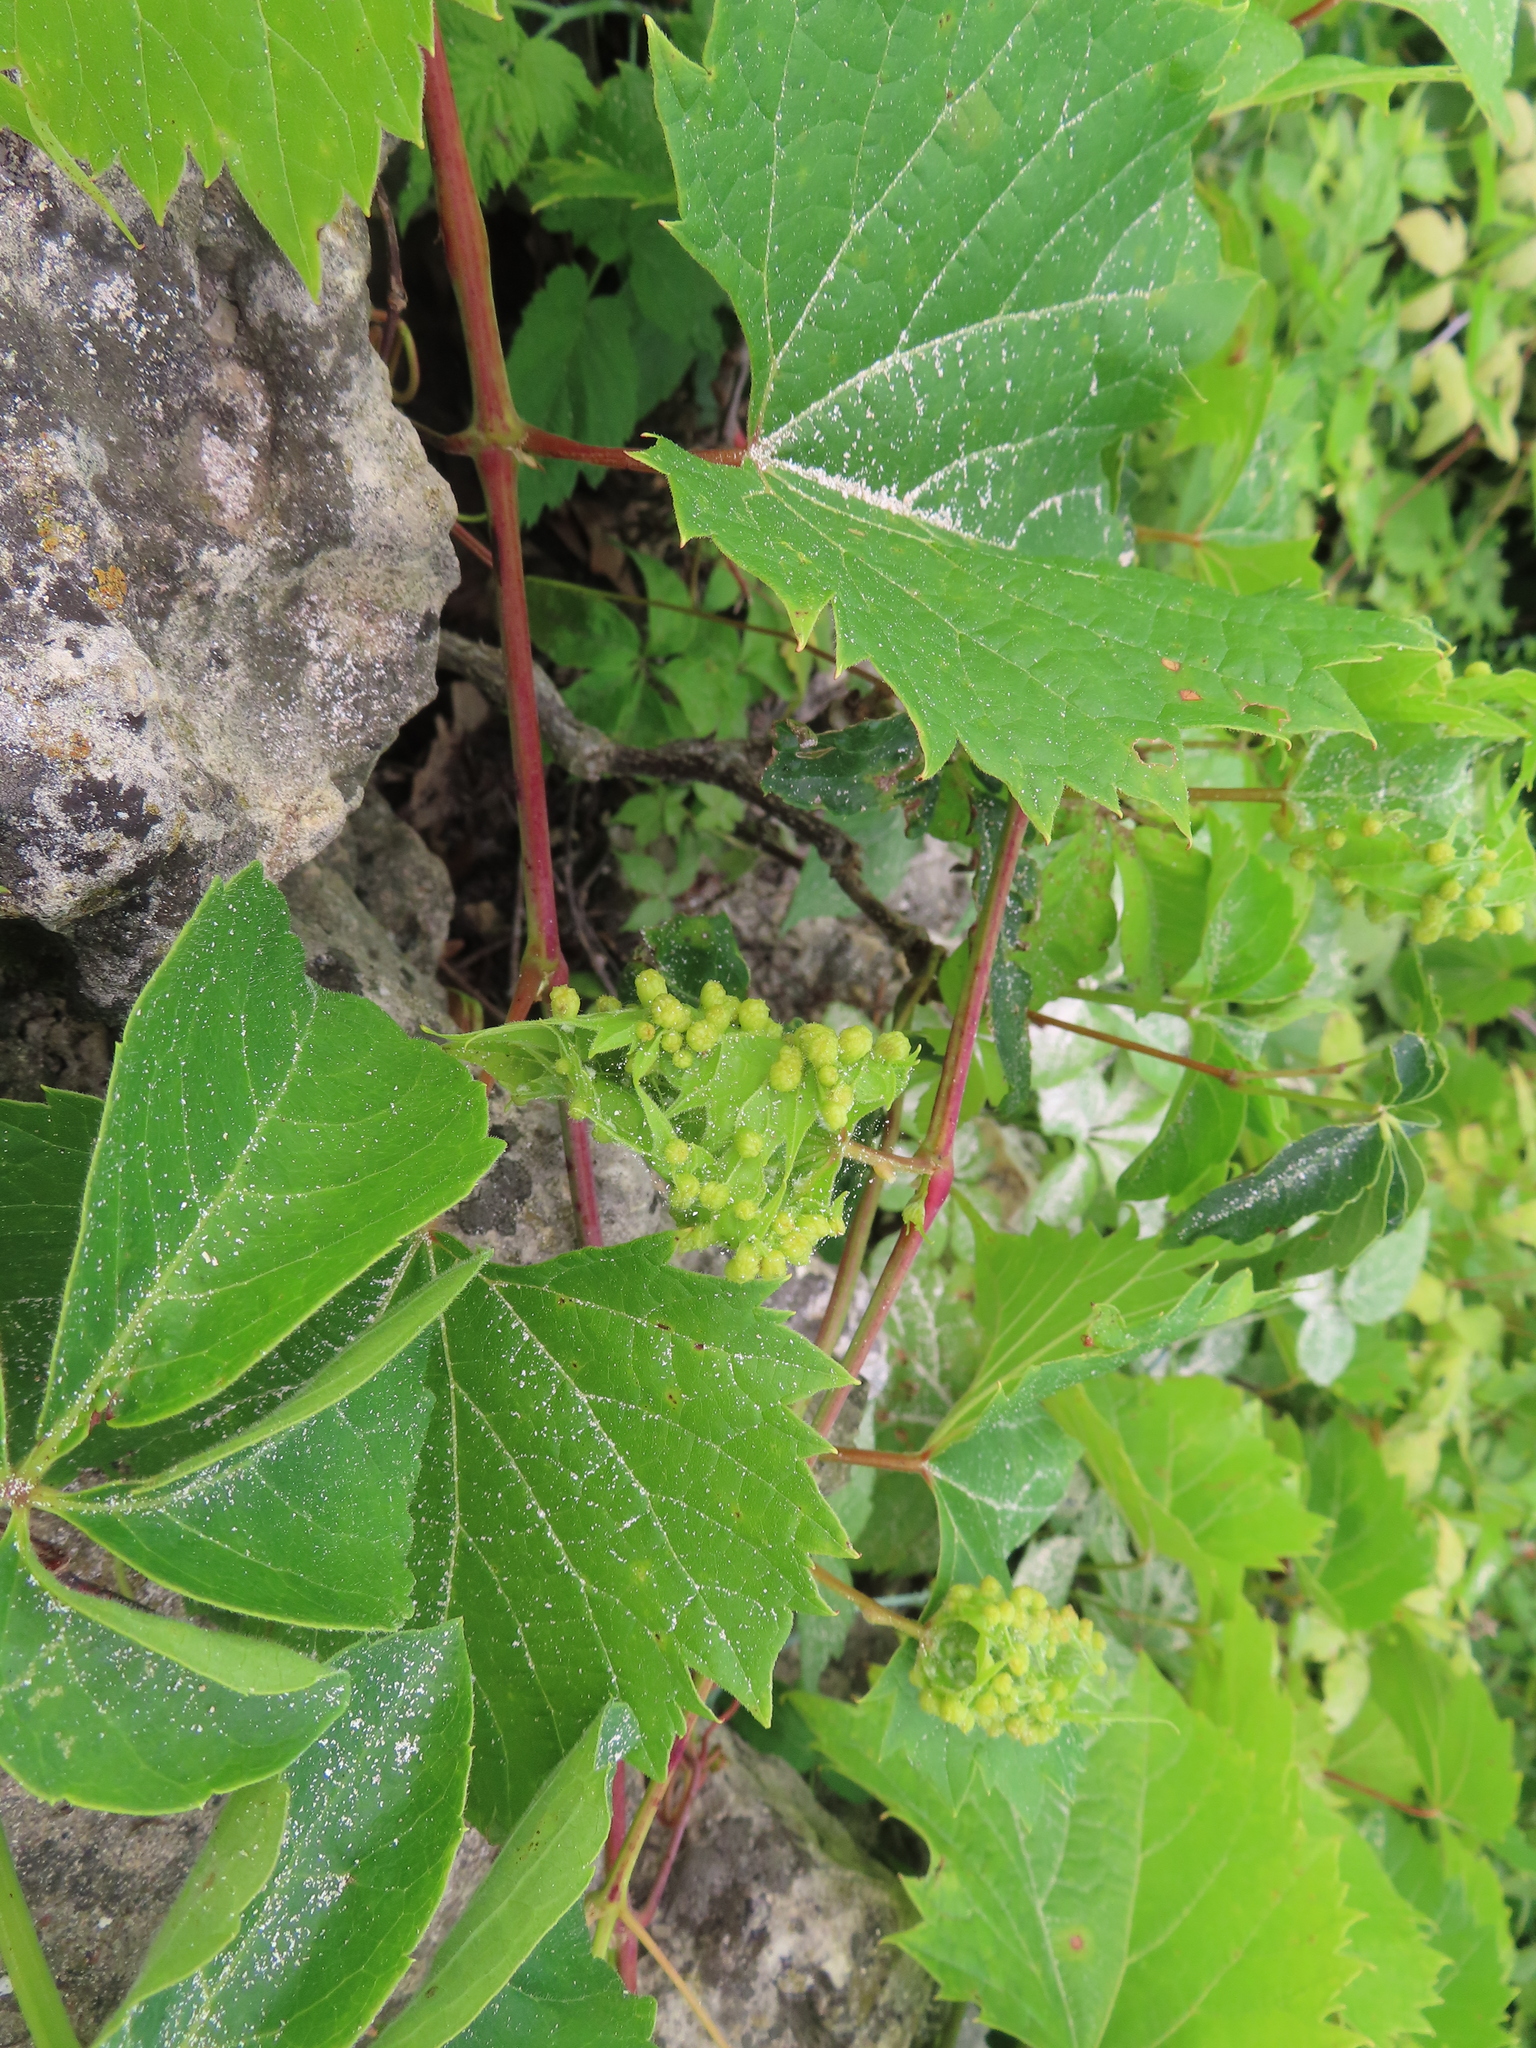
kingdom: Animalia
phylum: Arthropoda
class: Insecta
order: Hemiptera
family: Phylloxeridae
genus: Daktulosphaira
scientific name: Daktulosphaira vitifoliae
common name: Grape phylloxera
